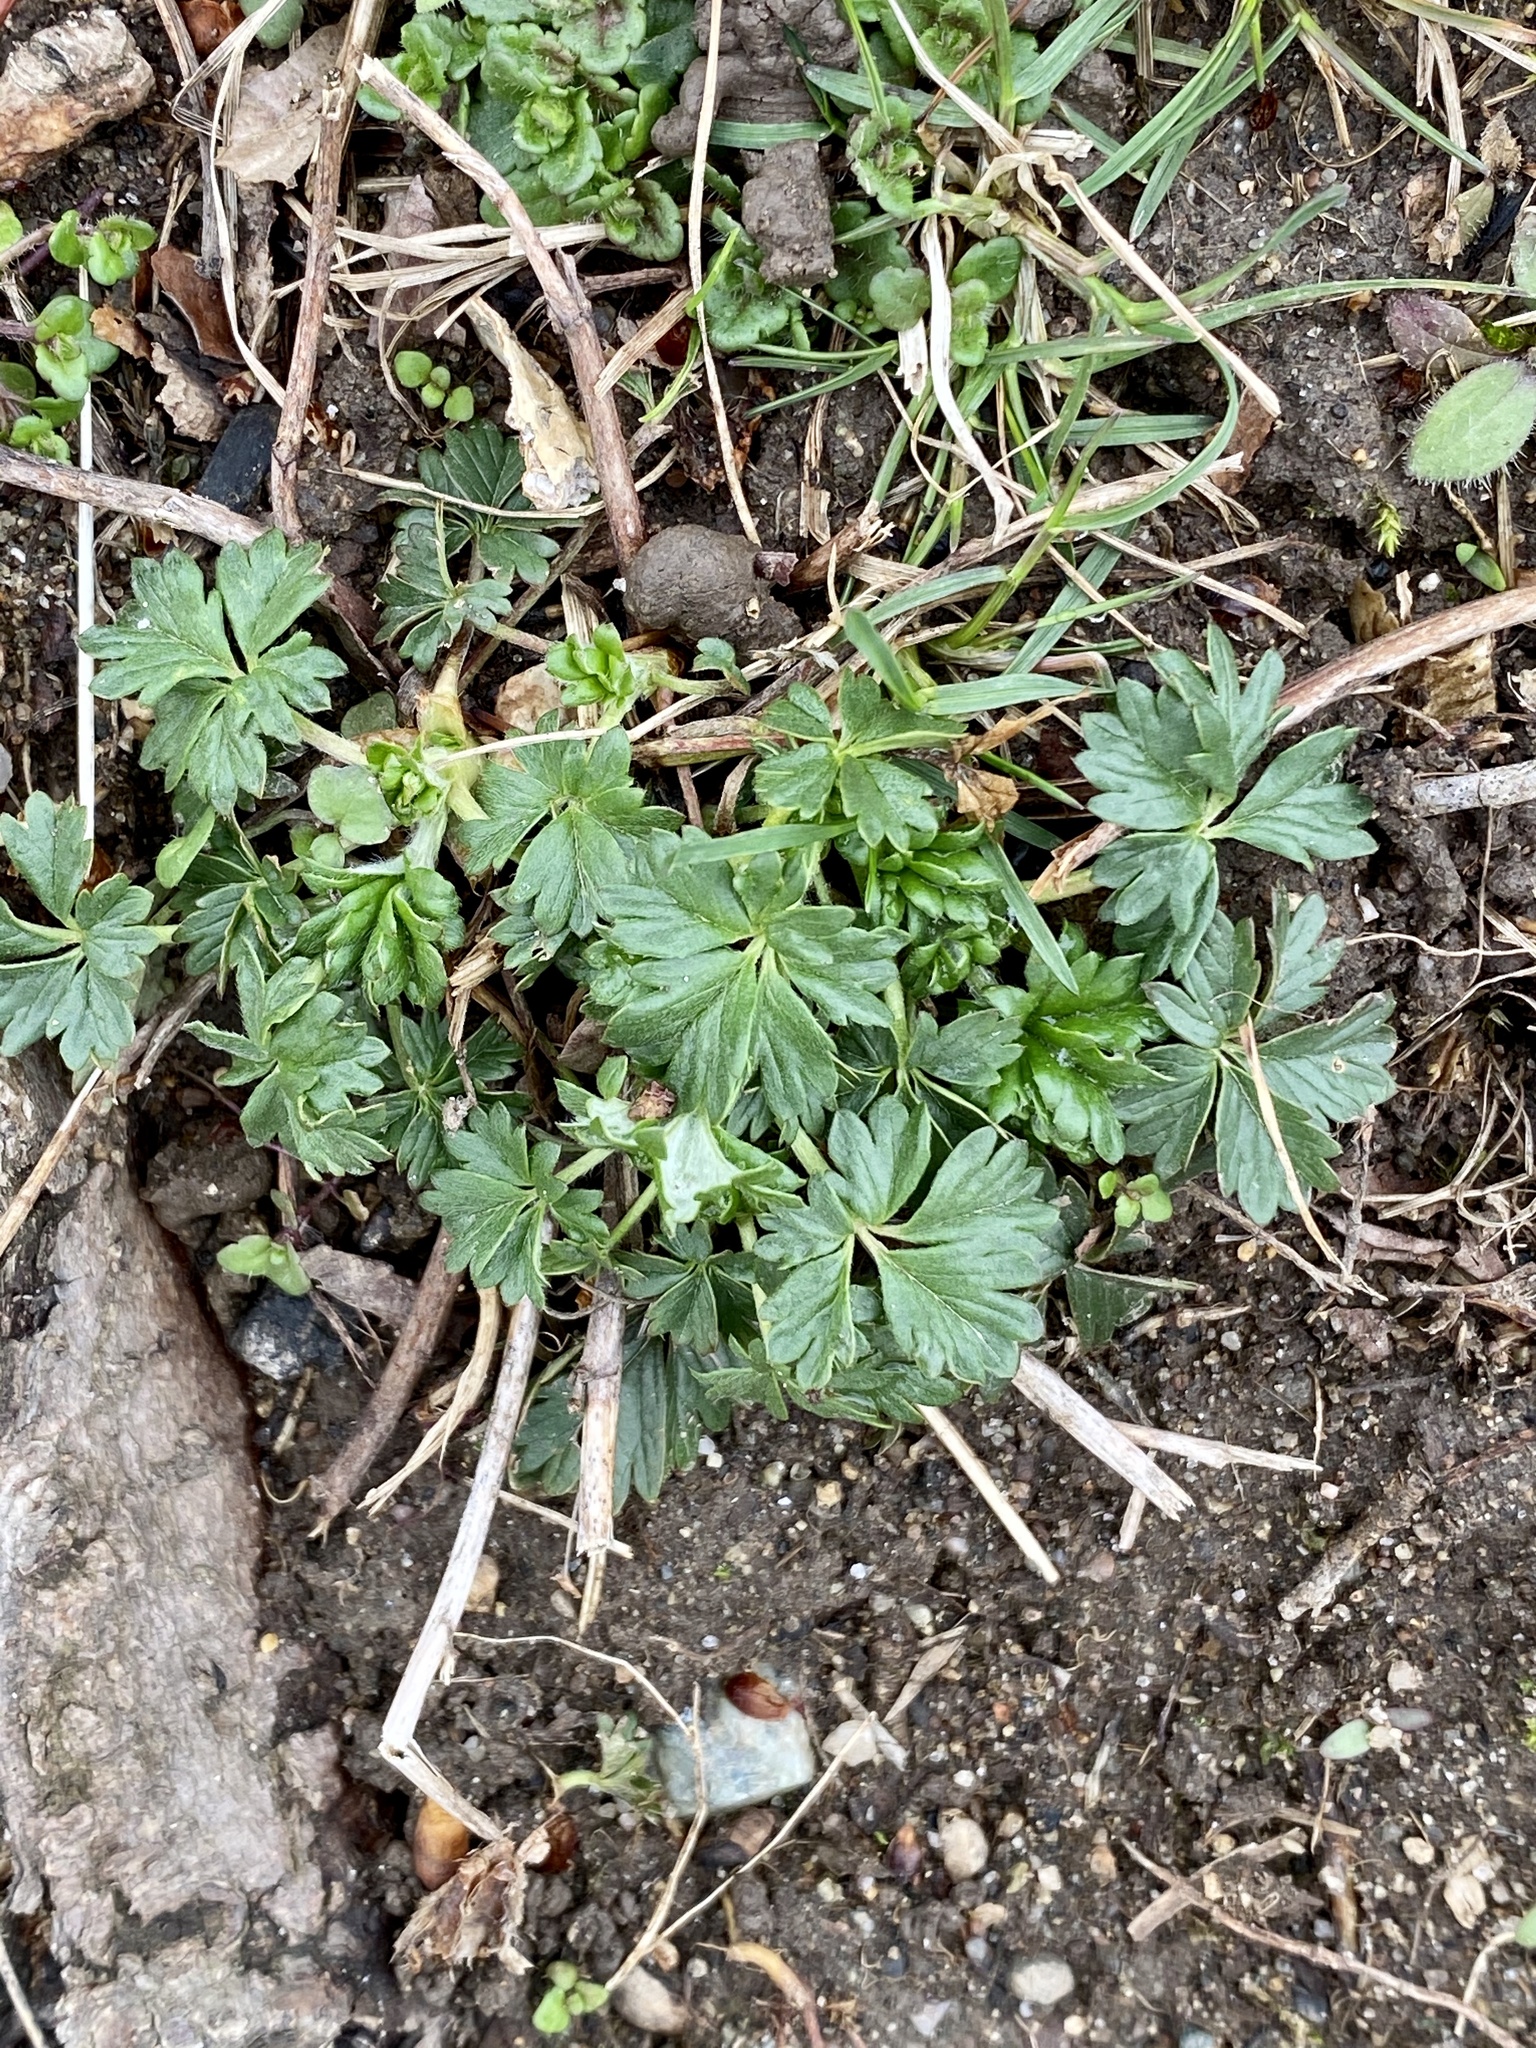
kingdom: Plantae
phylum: Tracheophyta
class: Magnoliopsida
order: Rosales
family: Rosaceae
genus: Potentilla
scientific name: Potentilla argentea
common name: Hoary cinquefoil
